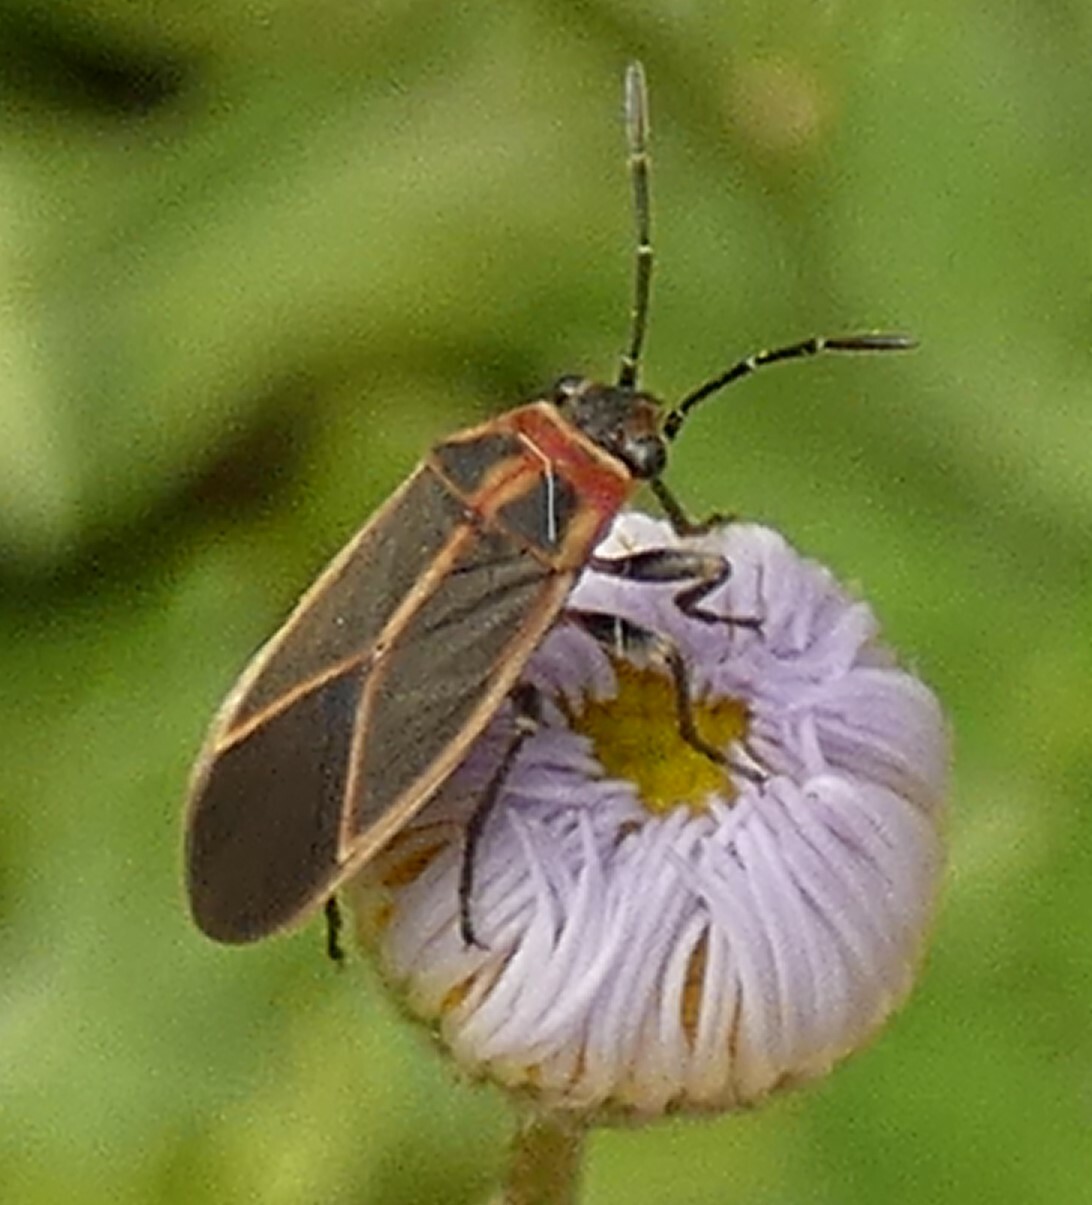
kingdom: Animalia
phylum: Arthropoda
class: Insecta
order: Hemiptera
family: Lygaeidae
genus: Ochrimnus
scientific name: Ochrimnus mimulus
